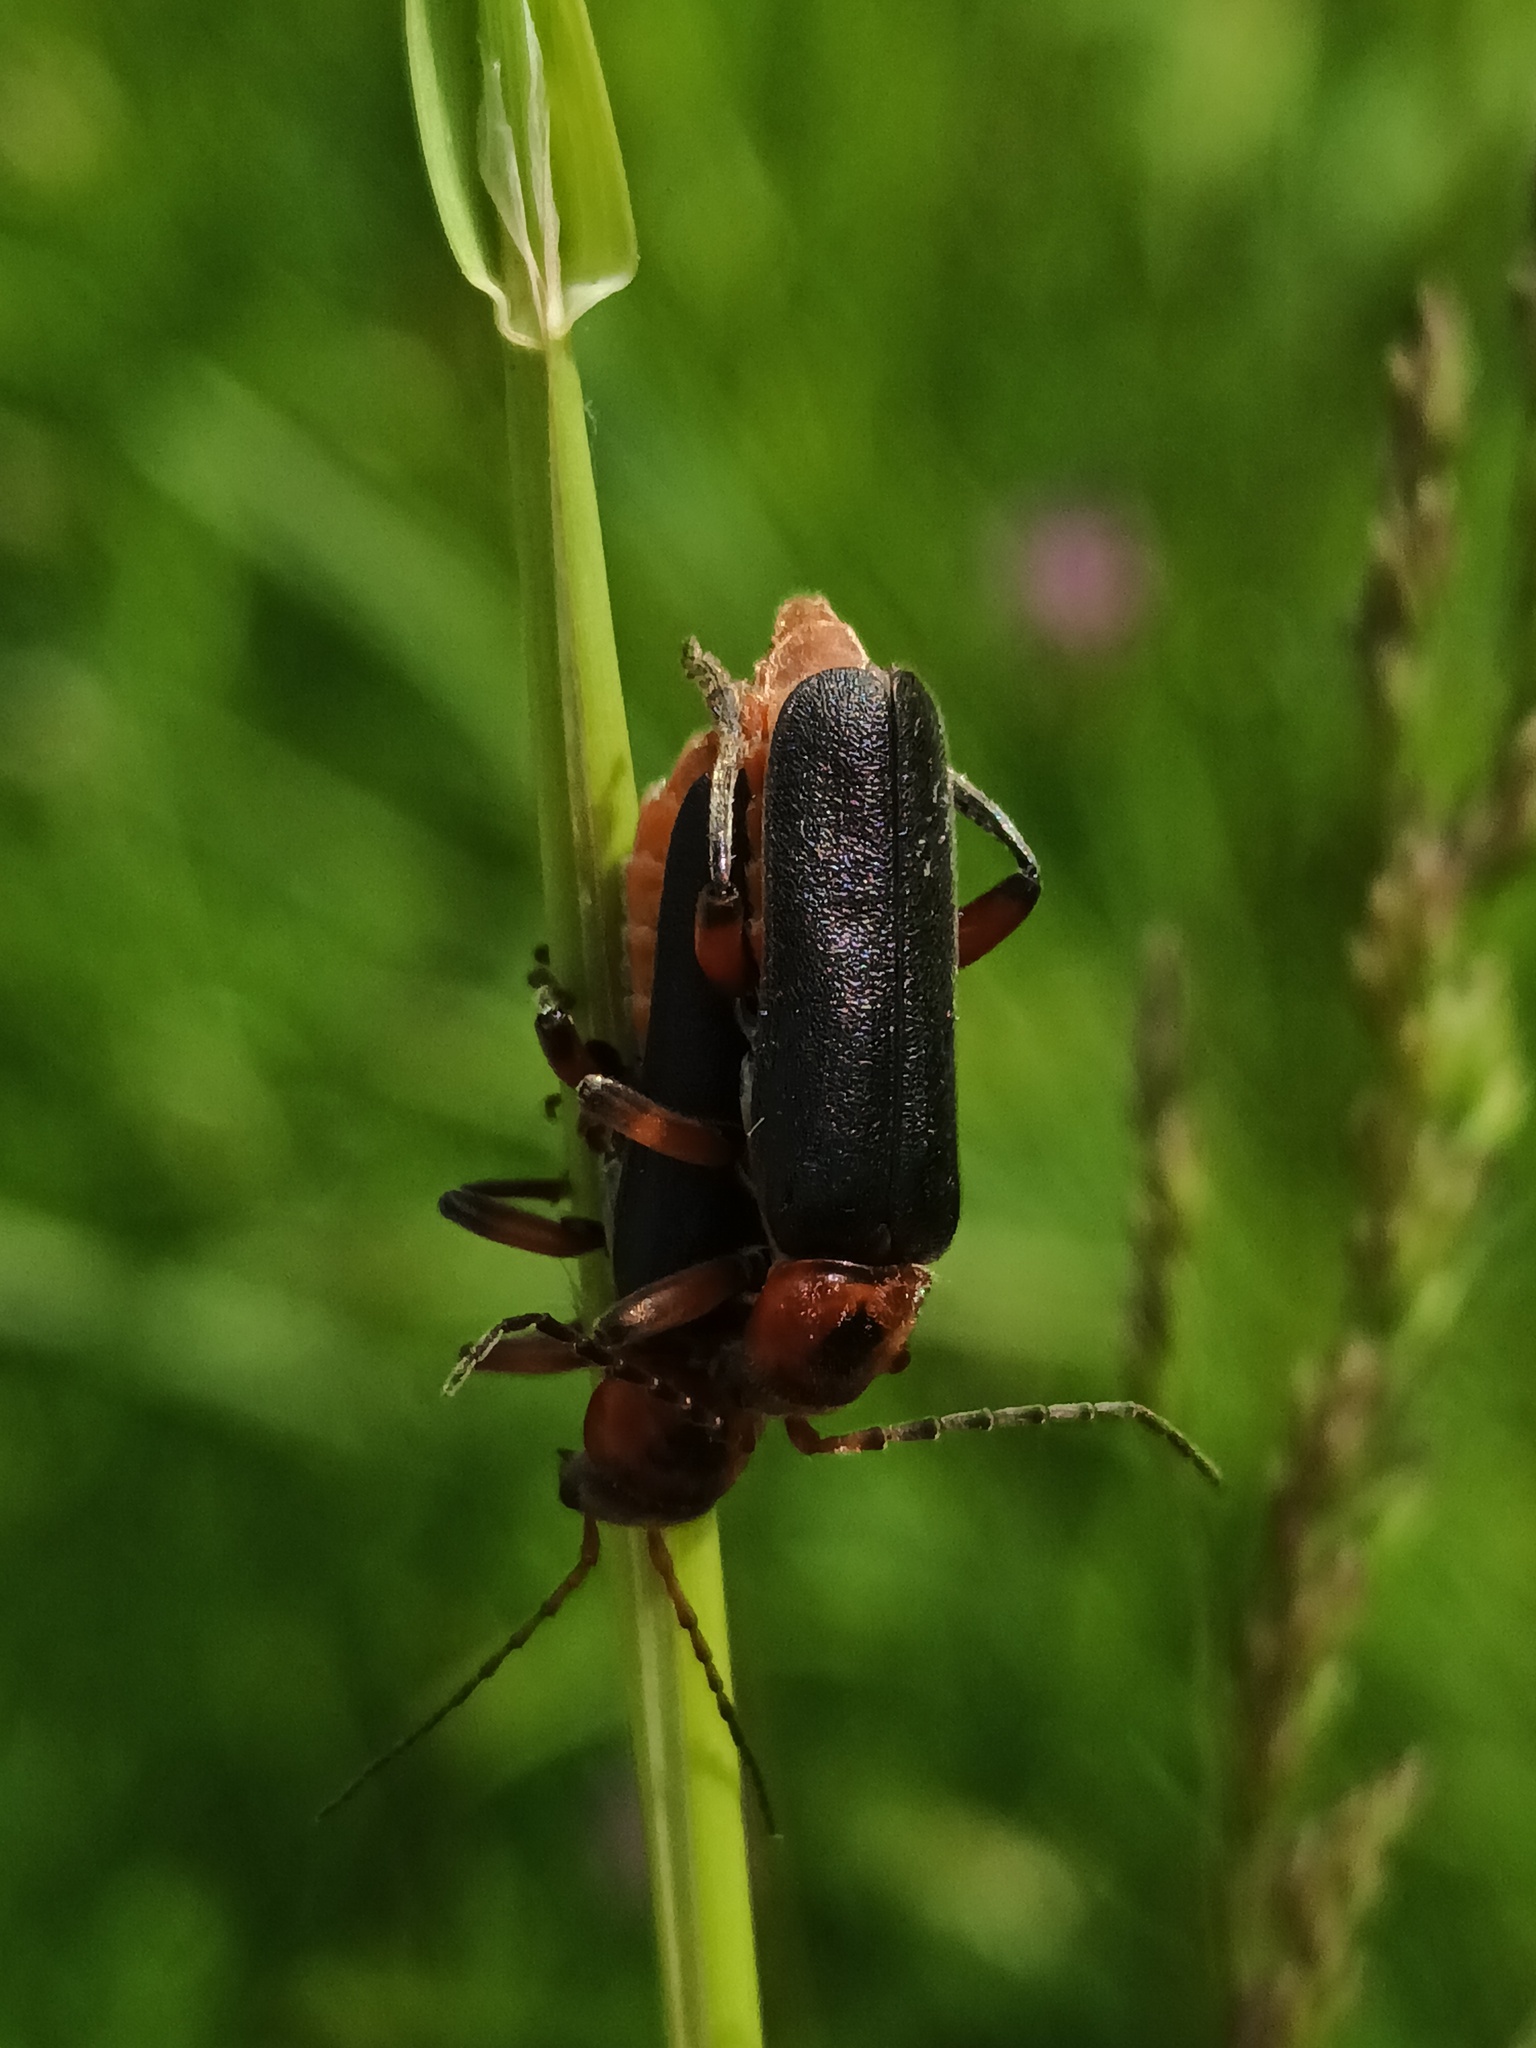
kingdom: Animalia
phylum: Arthropoda
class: Insecta
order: Coleoptera
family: Cantharidae
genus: Cantharis
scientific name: Cantharis rustica
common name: Soldier beetle
